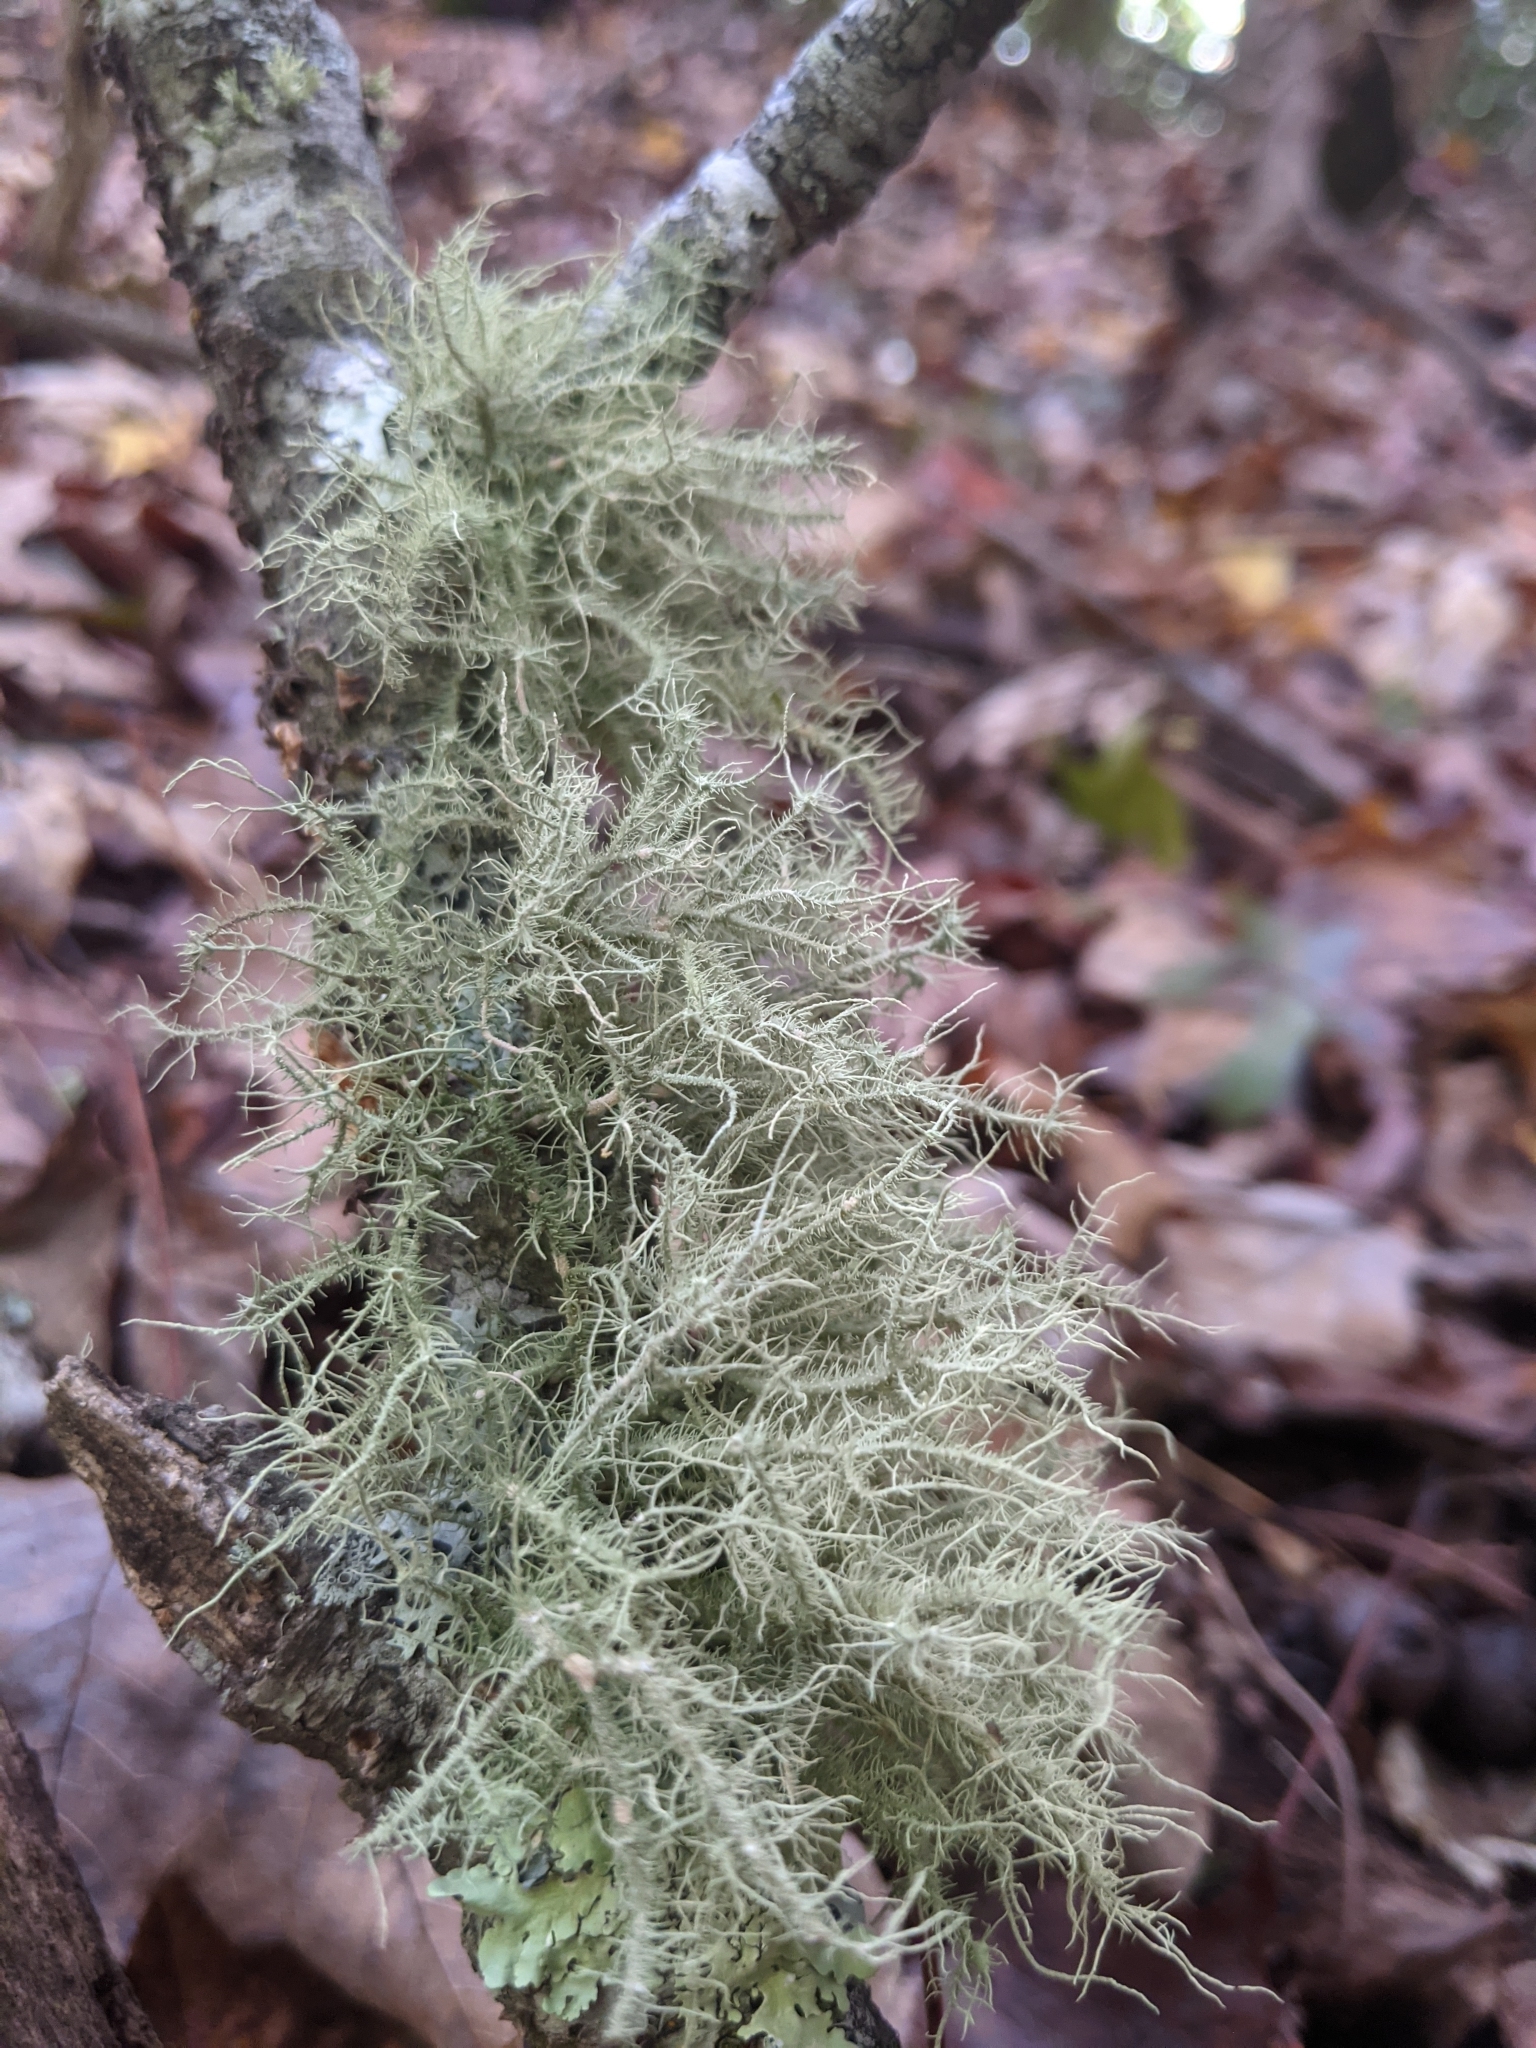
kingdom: Fungi
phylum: Ascomycota
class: Lecanoromycetes
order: Lecanorales
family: Parmeliaceae
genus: Usnea
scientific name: Usnea strigosa
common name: Bushy beard lichen
